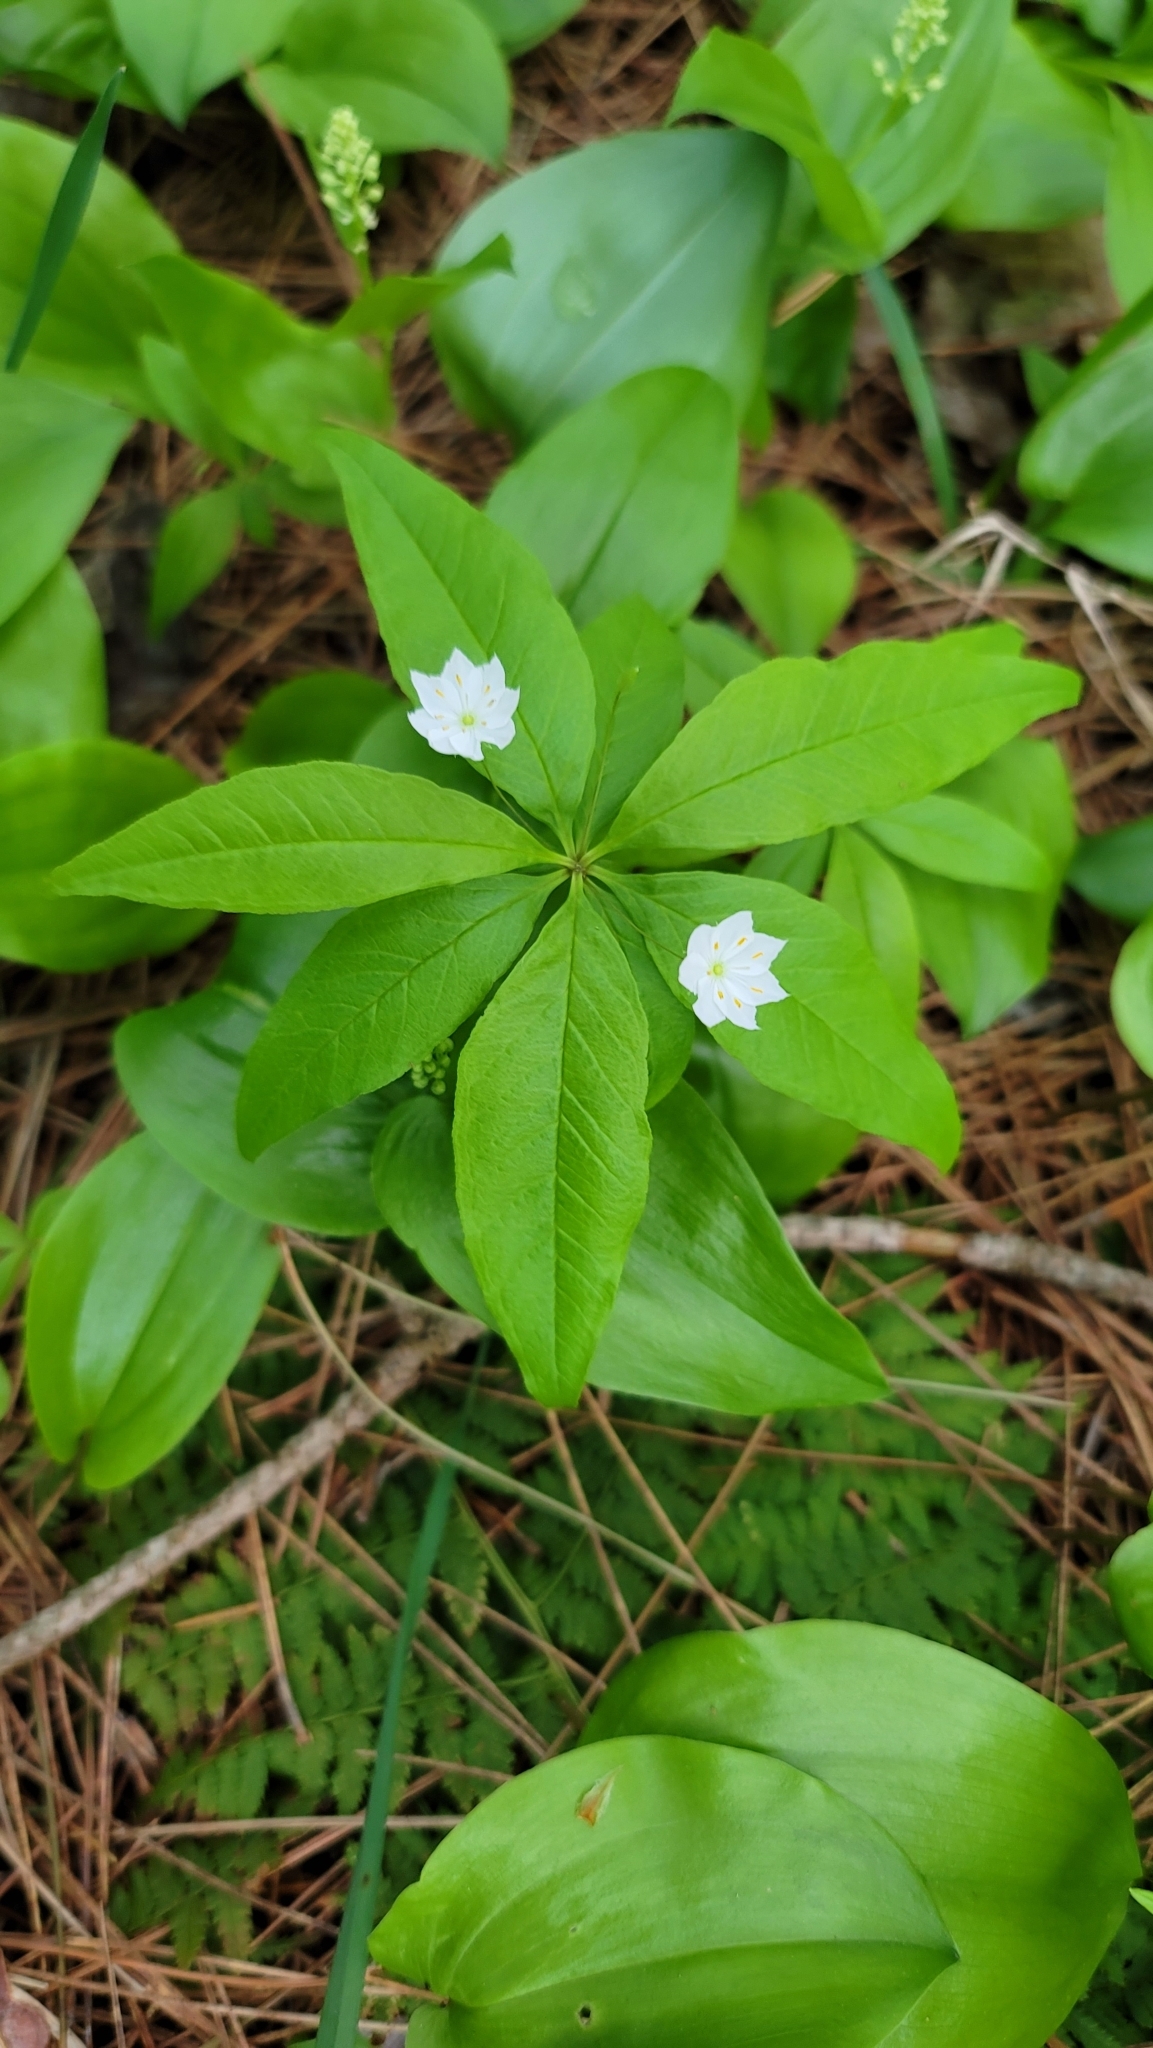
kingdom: Plantae
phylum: Tracheophyta
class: Magnoliopsida
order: Ericales
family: Primulaceae
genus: Lysimachia
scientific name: Lysimachia borealis
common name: American starflower
